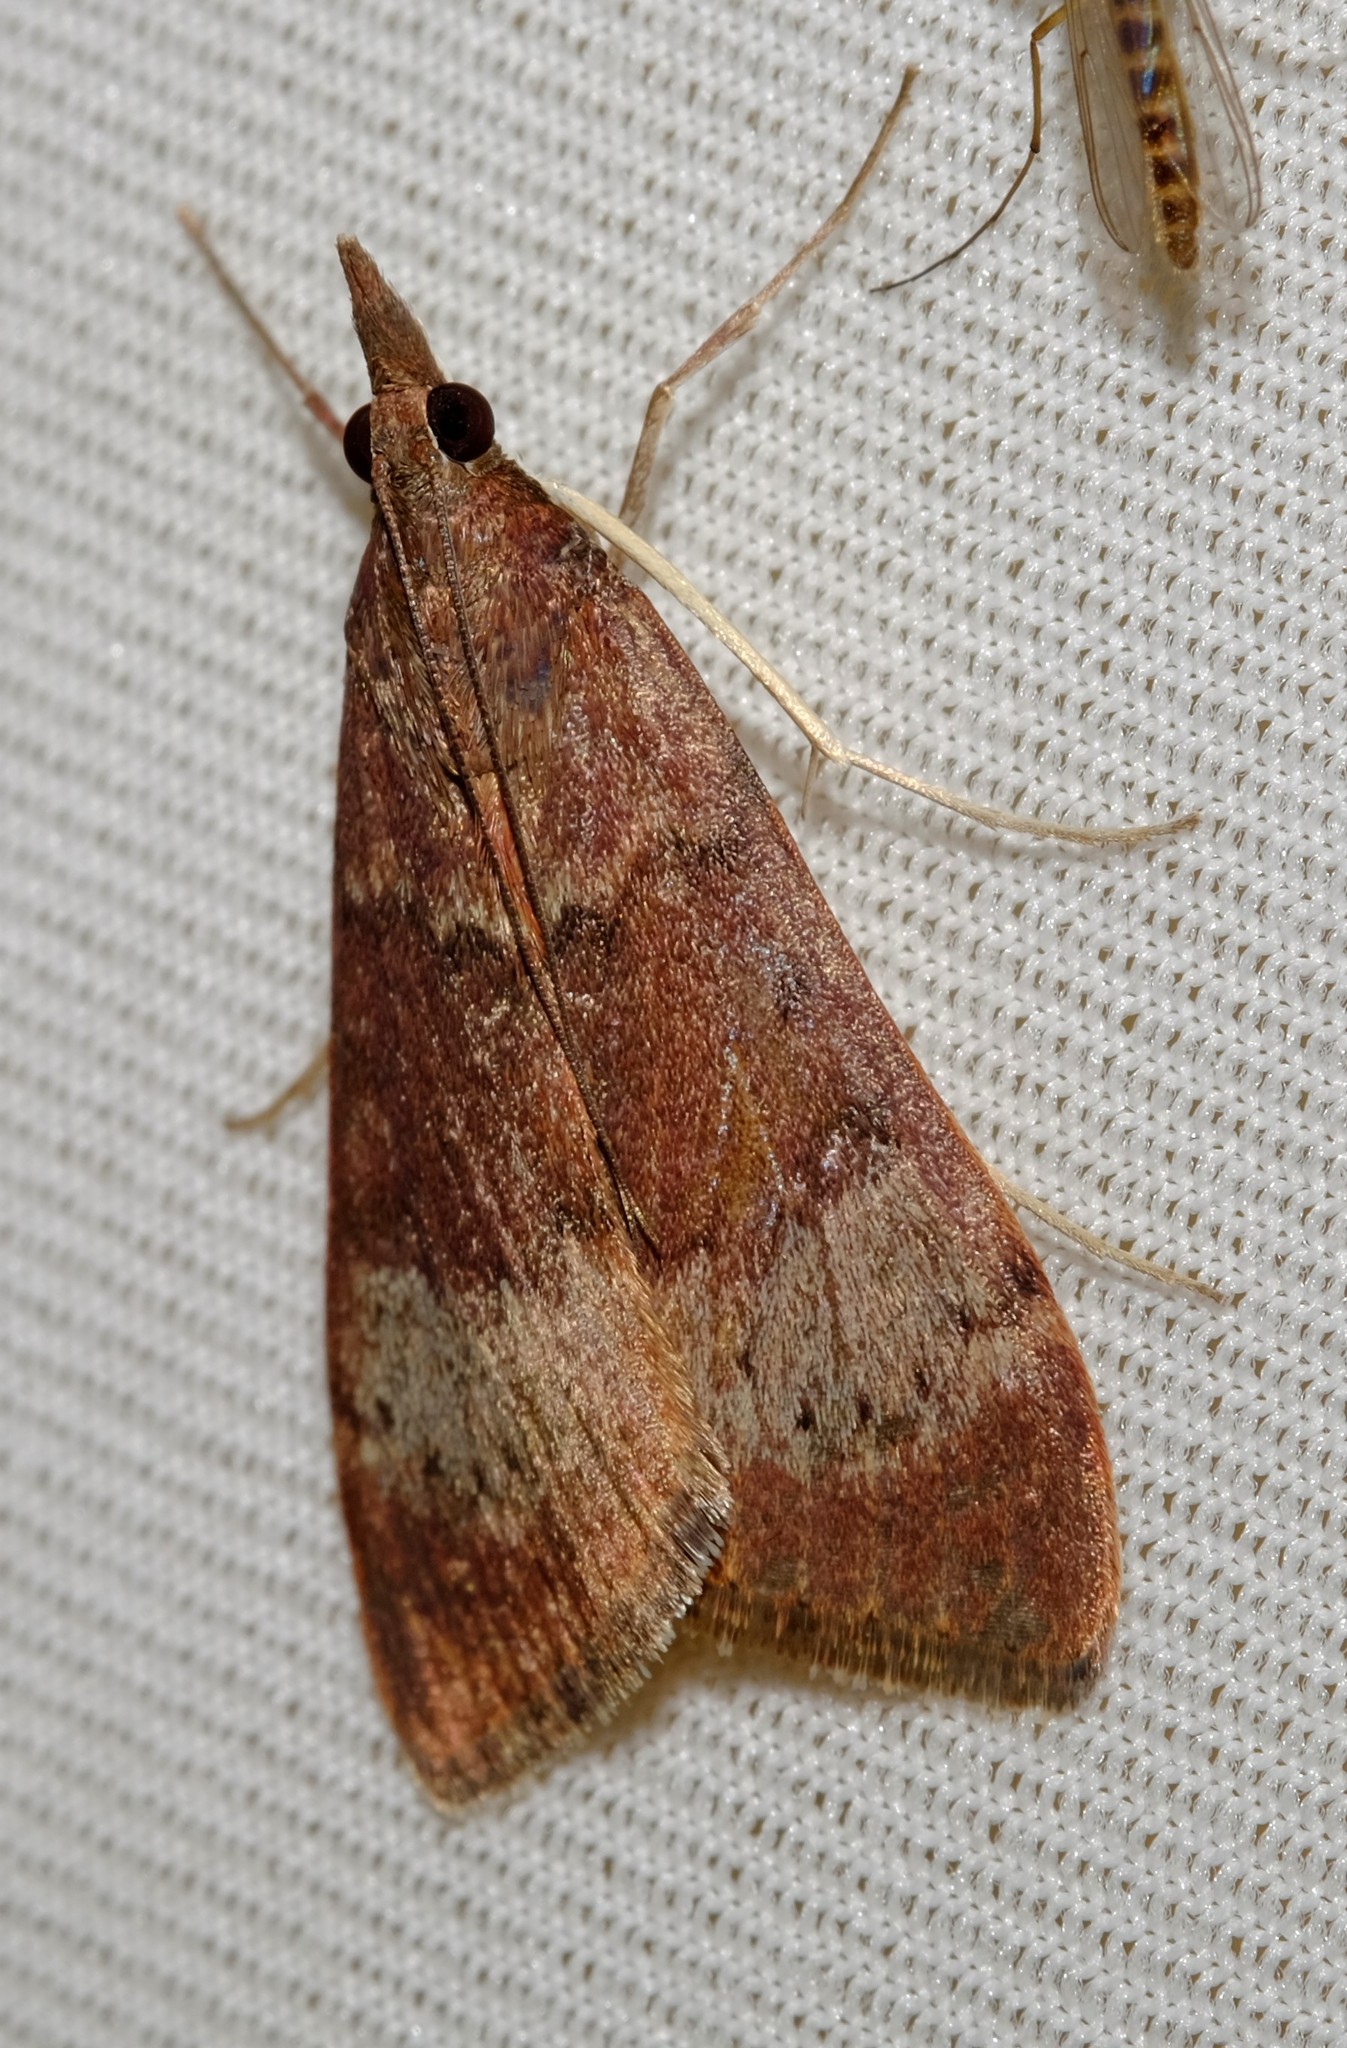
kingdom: Animalia
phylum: Arthropoda
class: Insecta
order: Lepidoptera
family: Crambidae
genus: Uresiphita
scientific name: Uresiphita ornithopteralis
